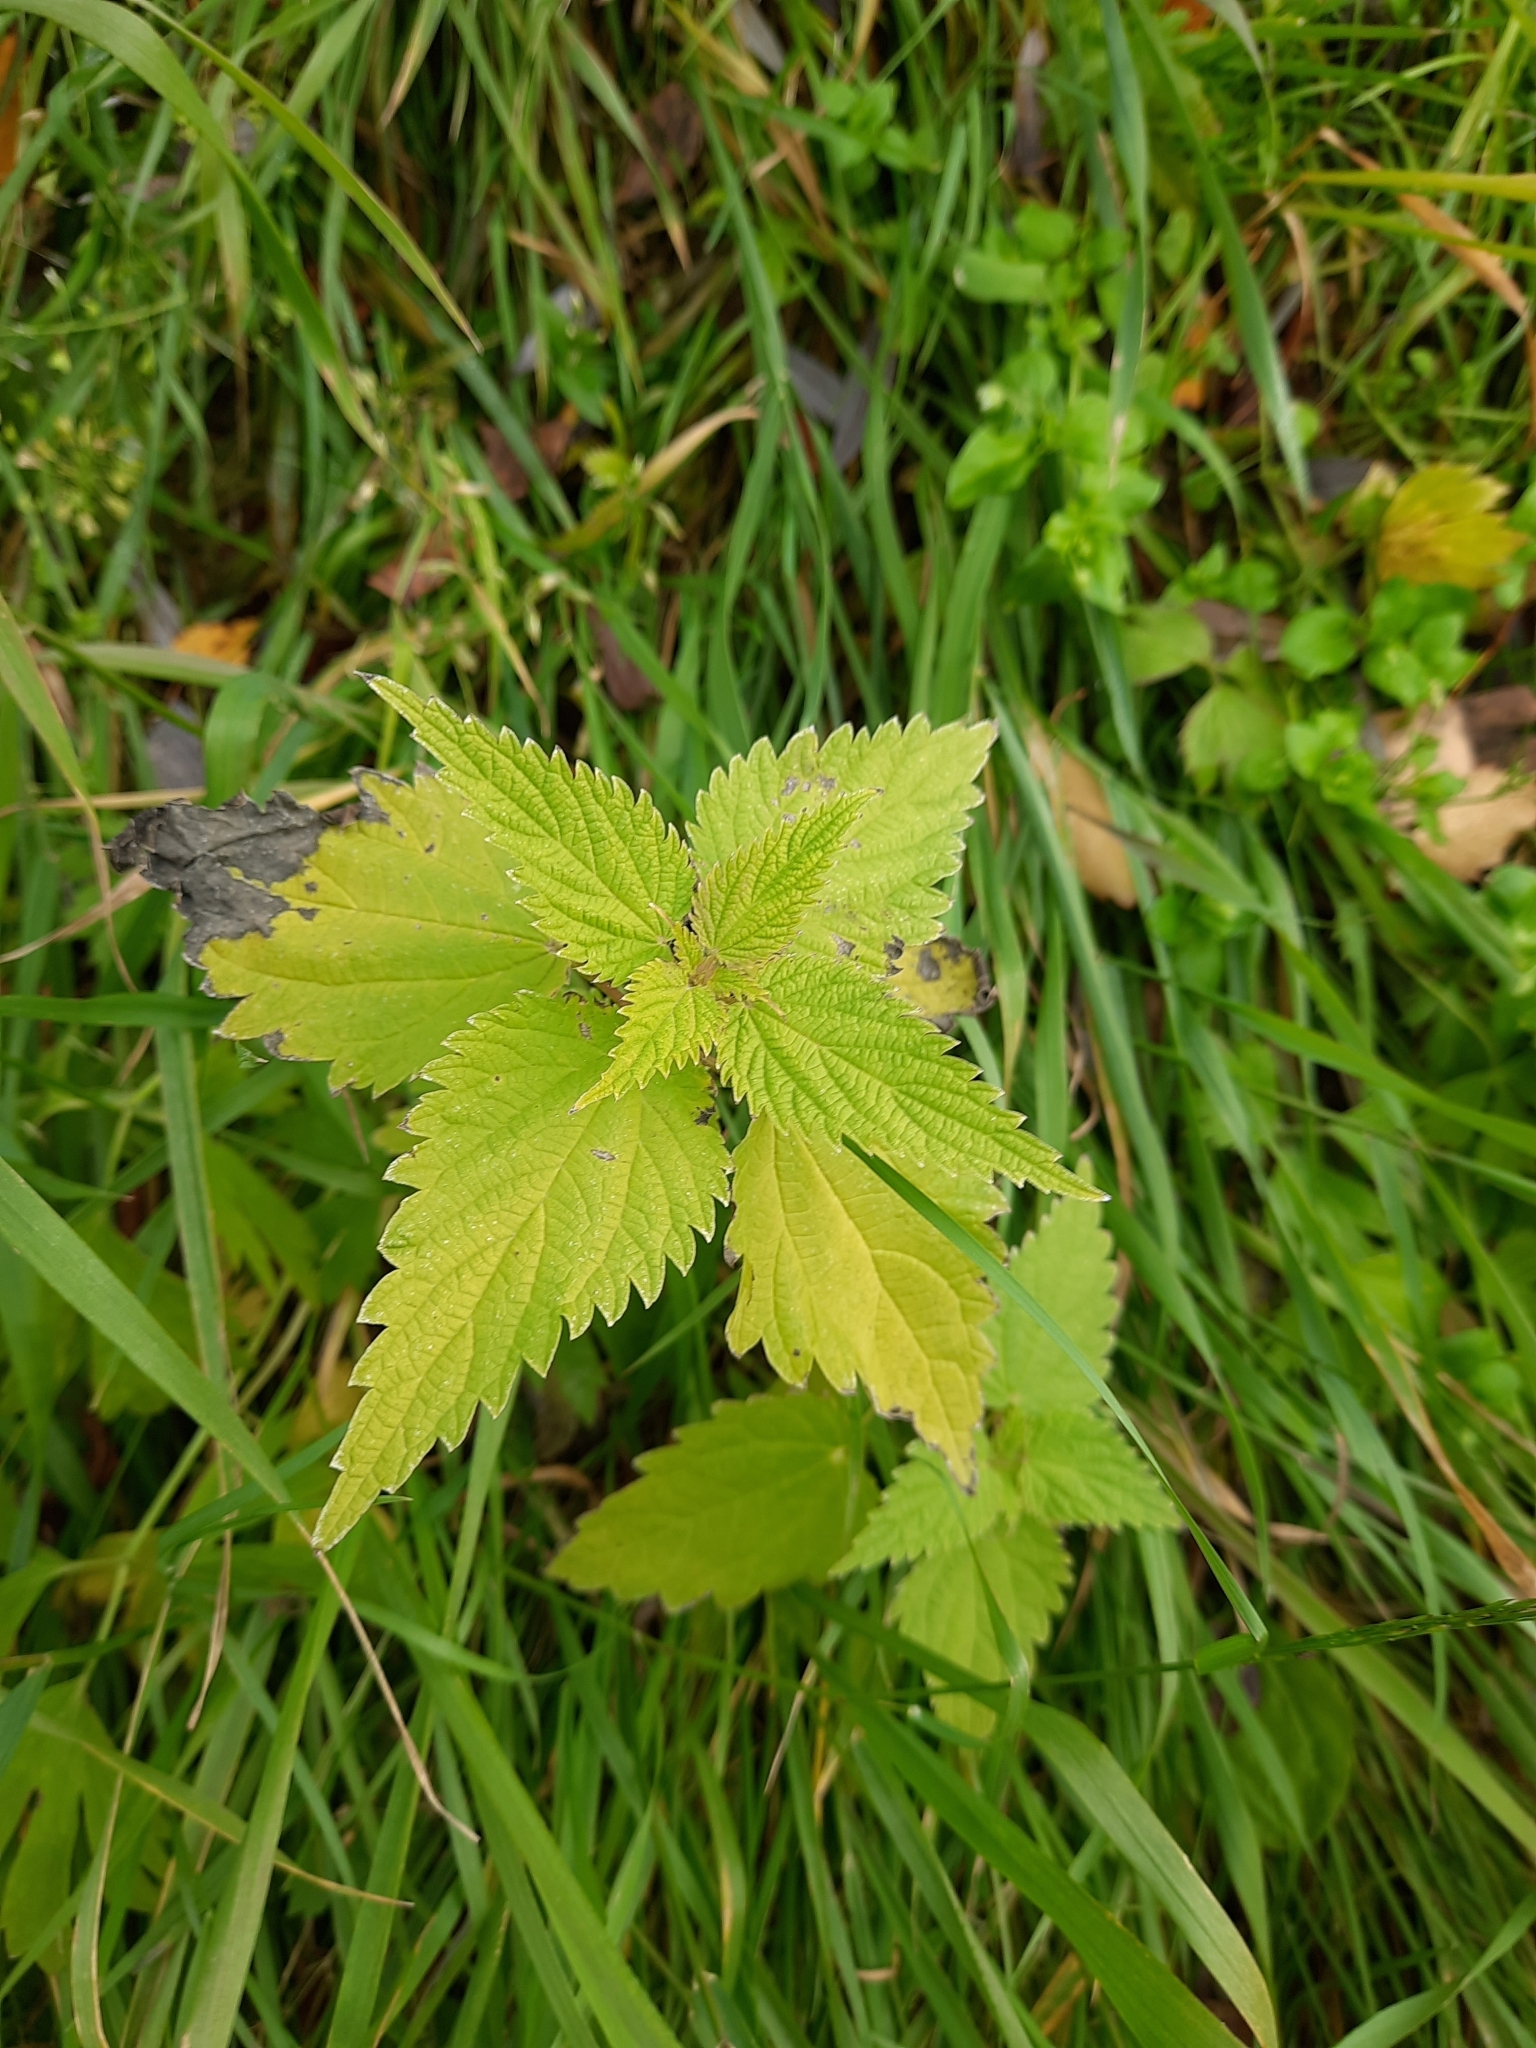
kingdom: Plantae
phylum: Tracheophyta
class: Magnoliopsida
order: Rosales
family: Urticaceae
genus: Urtica
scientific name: Urtica dioica
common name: Common nettle
